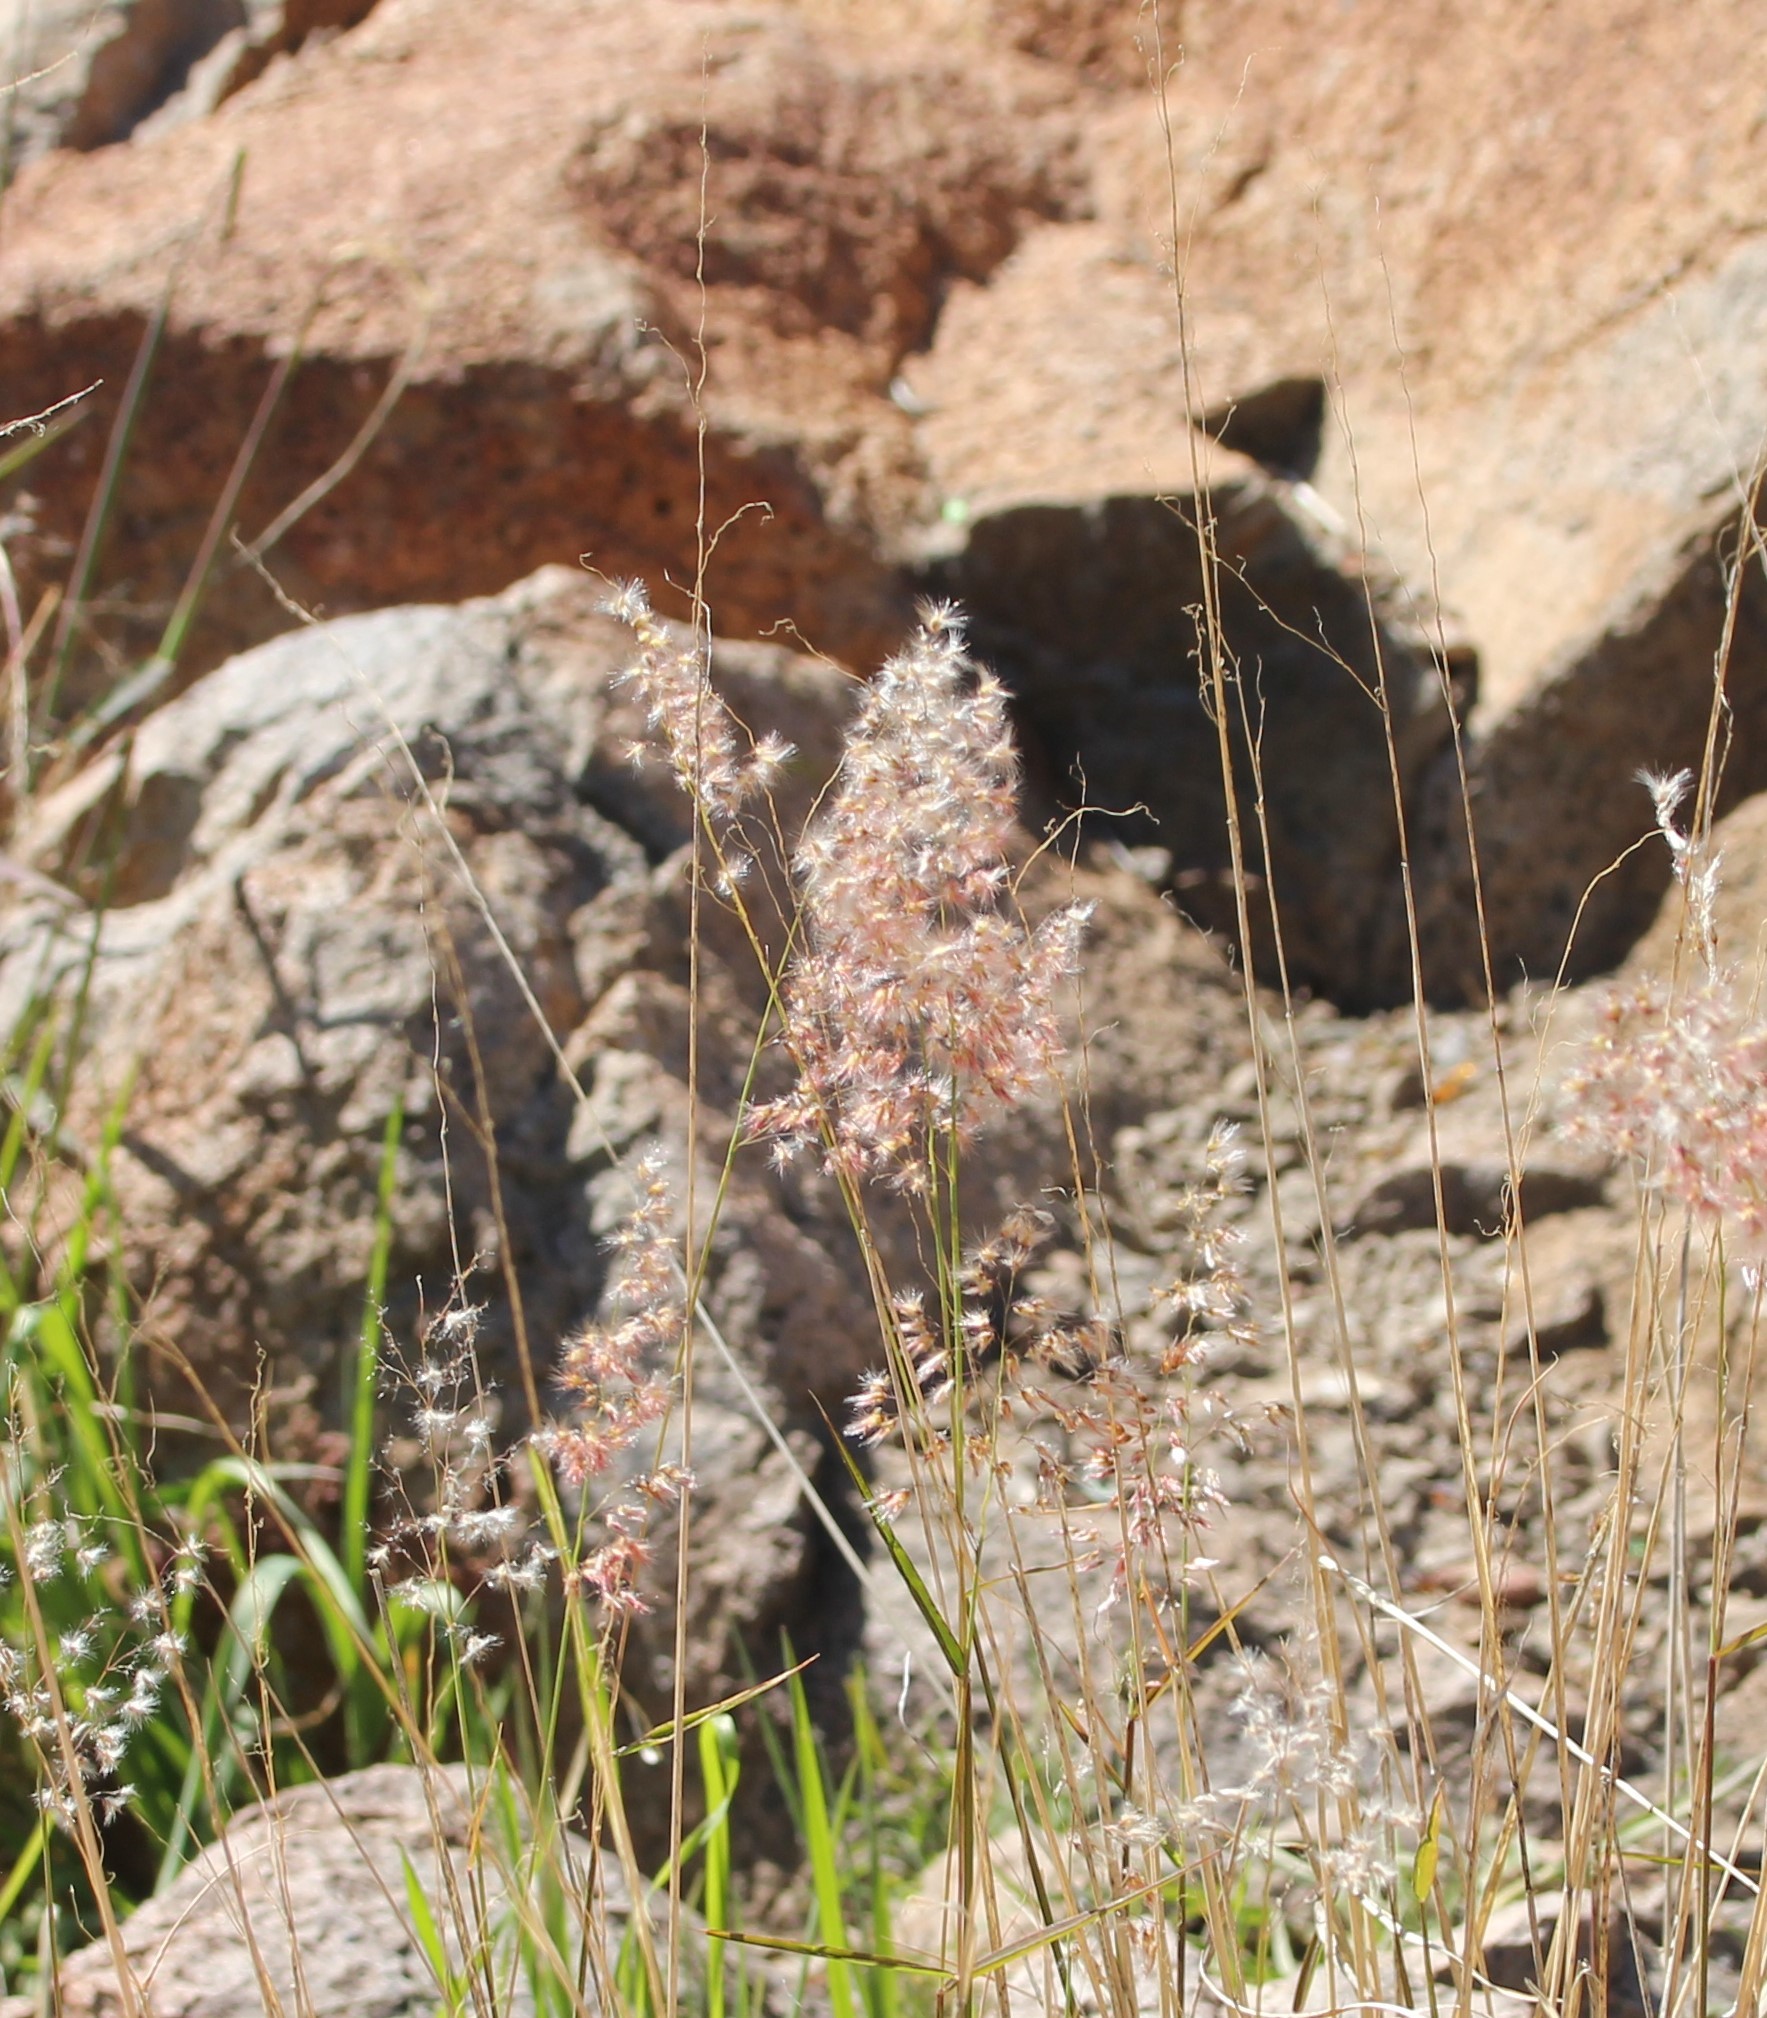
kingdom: Plantae
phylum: Tracheophyta
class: Liliopsida
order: Poales
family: Poaceae
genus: Melinis
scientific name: Melinis repens
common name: Rose natal grass
